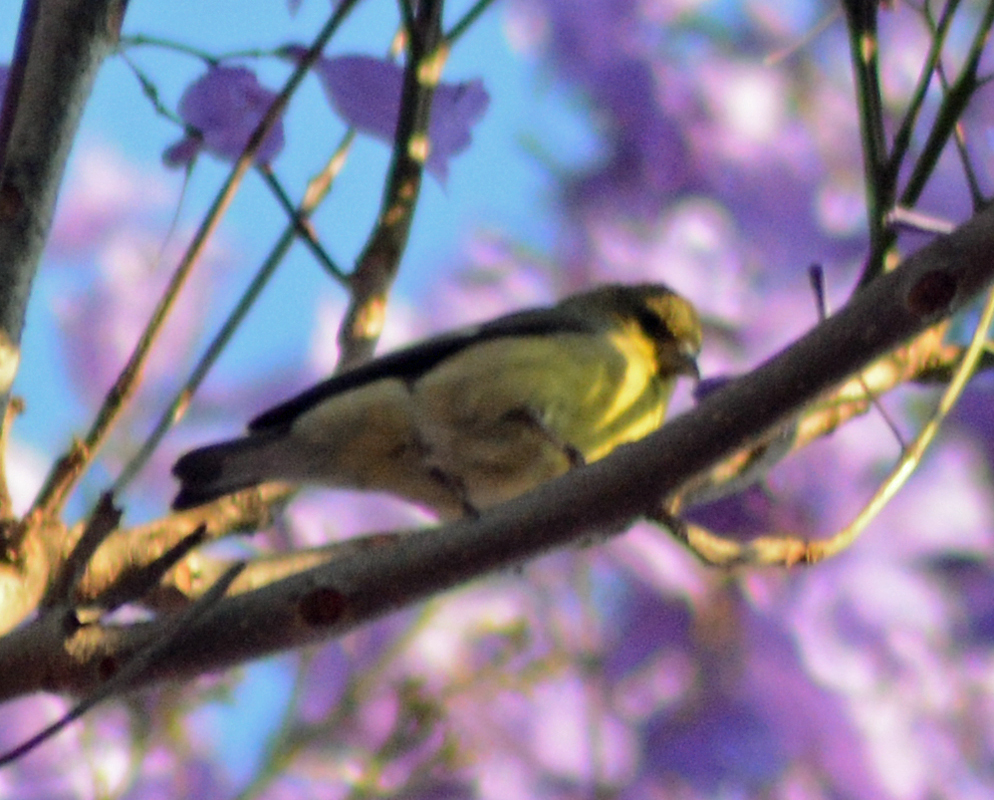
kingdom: Animalia
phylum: Chordata
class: Aves
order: Passeriformes
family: Fringillidae
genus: Spinus
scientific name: Spinus psaltria
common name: Lesser goldfinch
